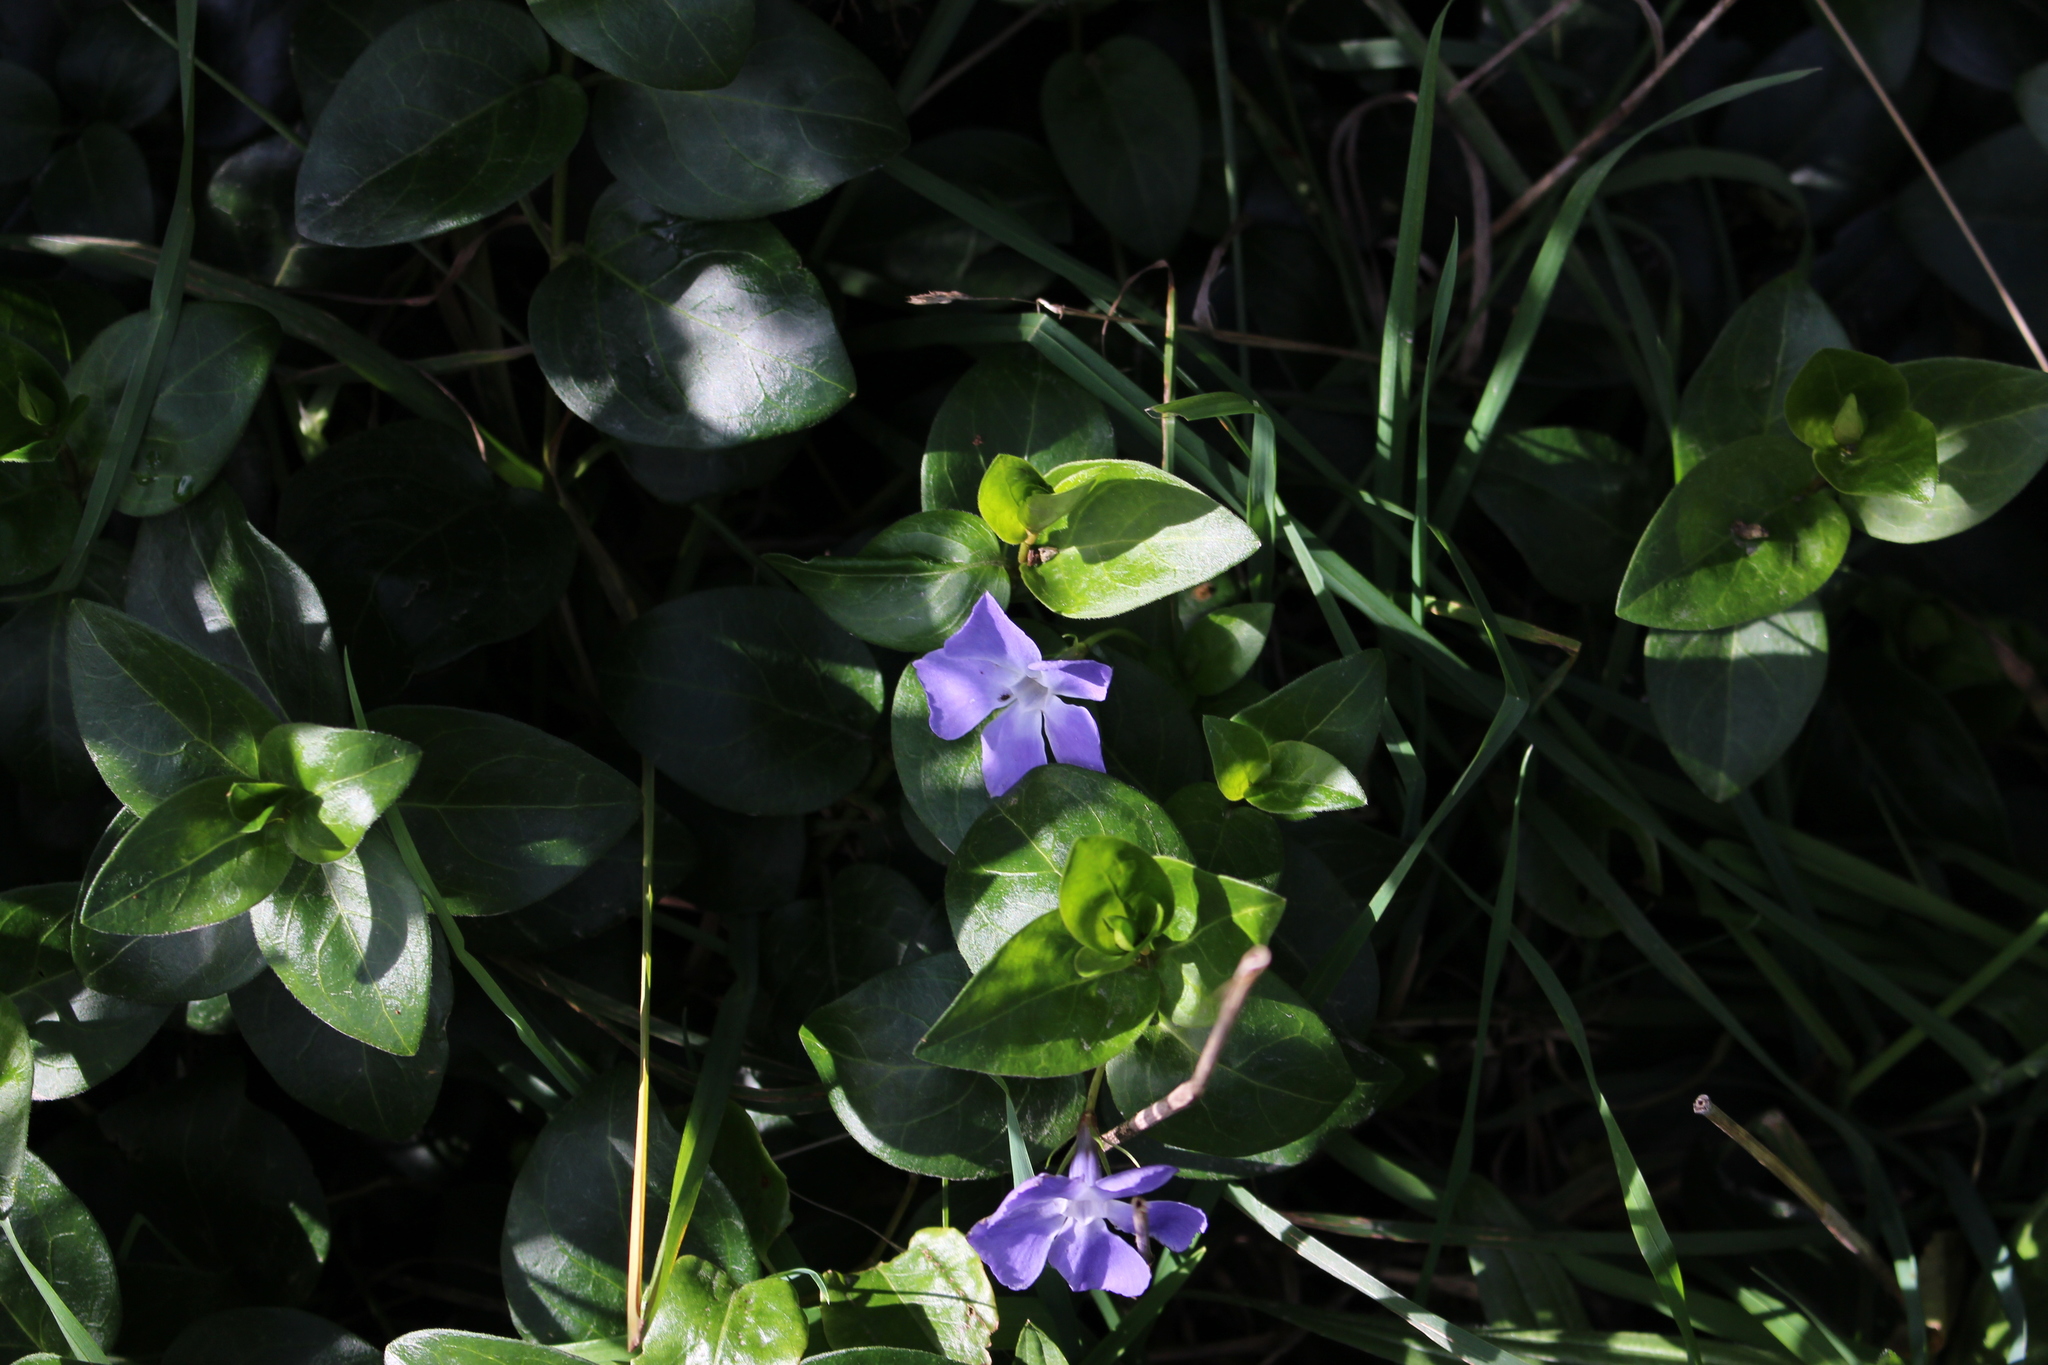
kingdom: Plantae
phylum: Tracheophyta
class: Magnoliopsida
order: Gentianales
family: Apocynaceae
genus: Vinca
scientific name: Vinca major
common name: Greater periwinkle
